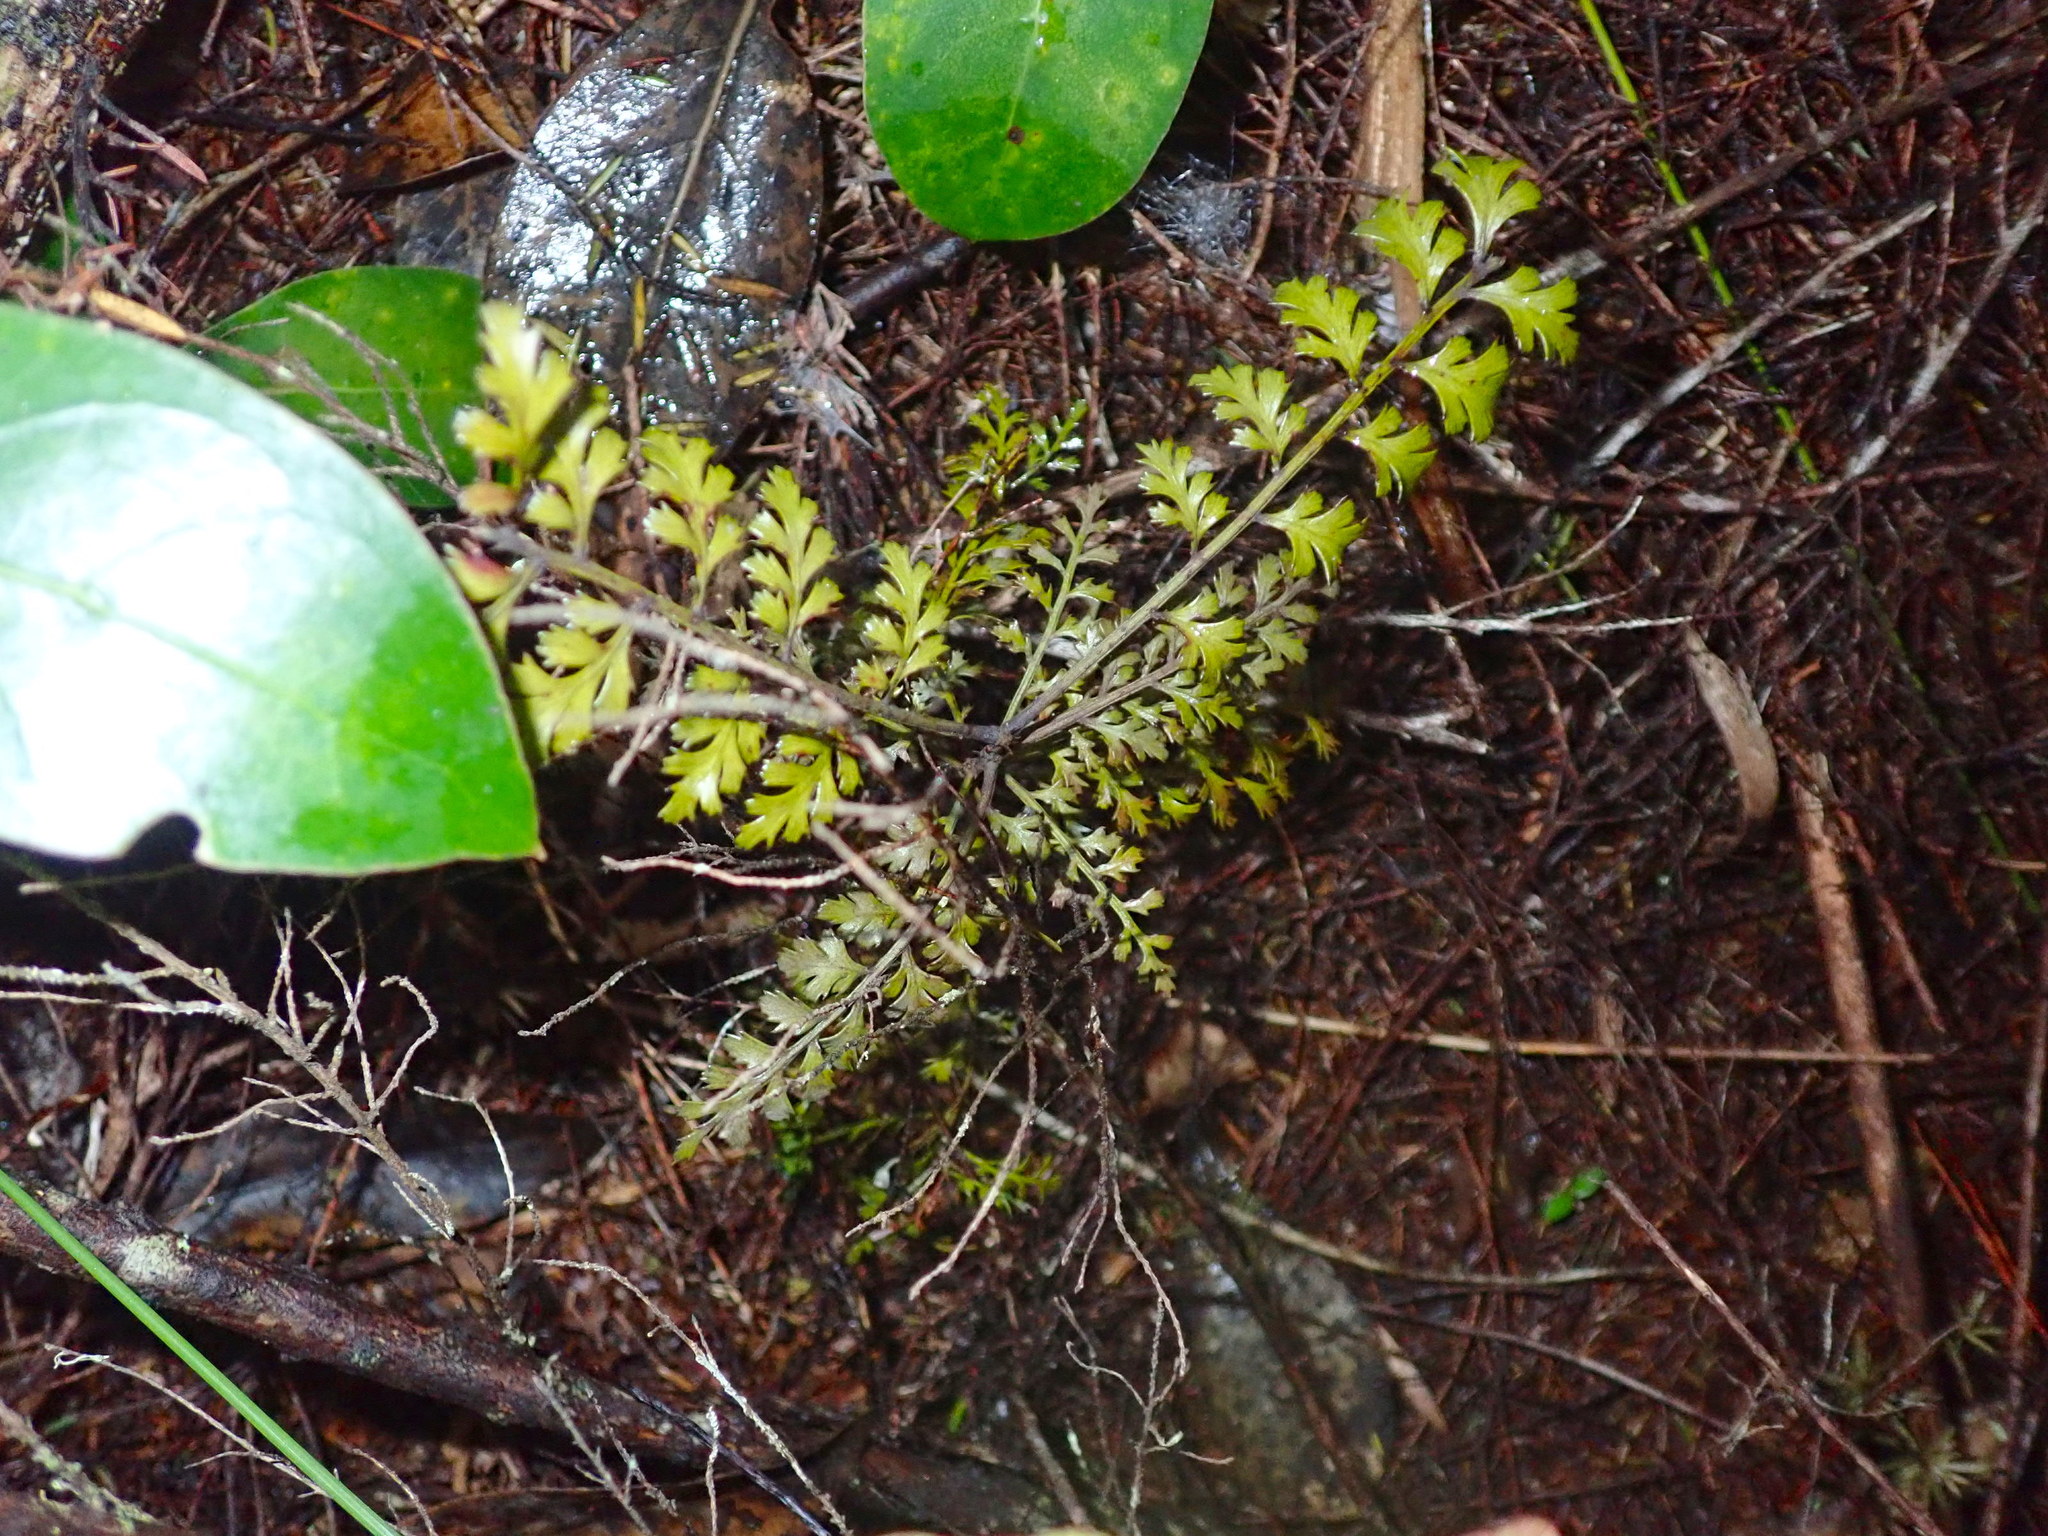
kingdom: Plantae
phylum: Tracheophyta
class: Pinopsida
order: Pinales
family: Phyllocladaceae
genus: Phyllocladus
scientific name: Phyllocladus trichomanoides
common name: Celery pine
